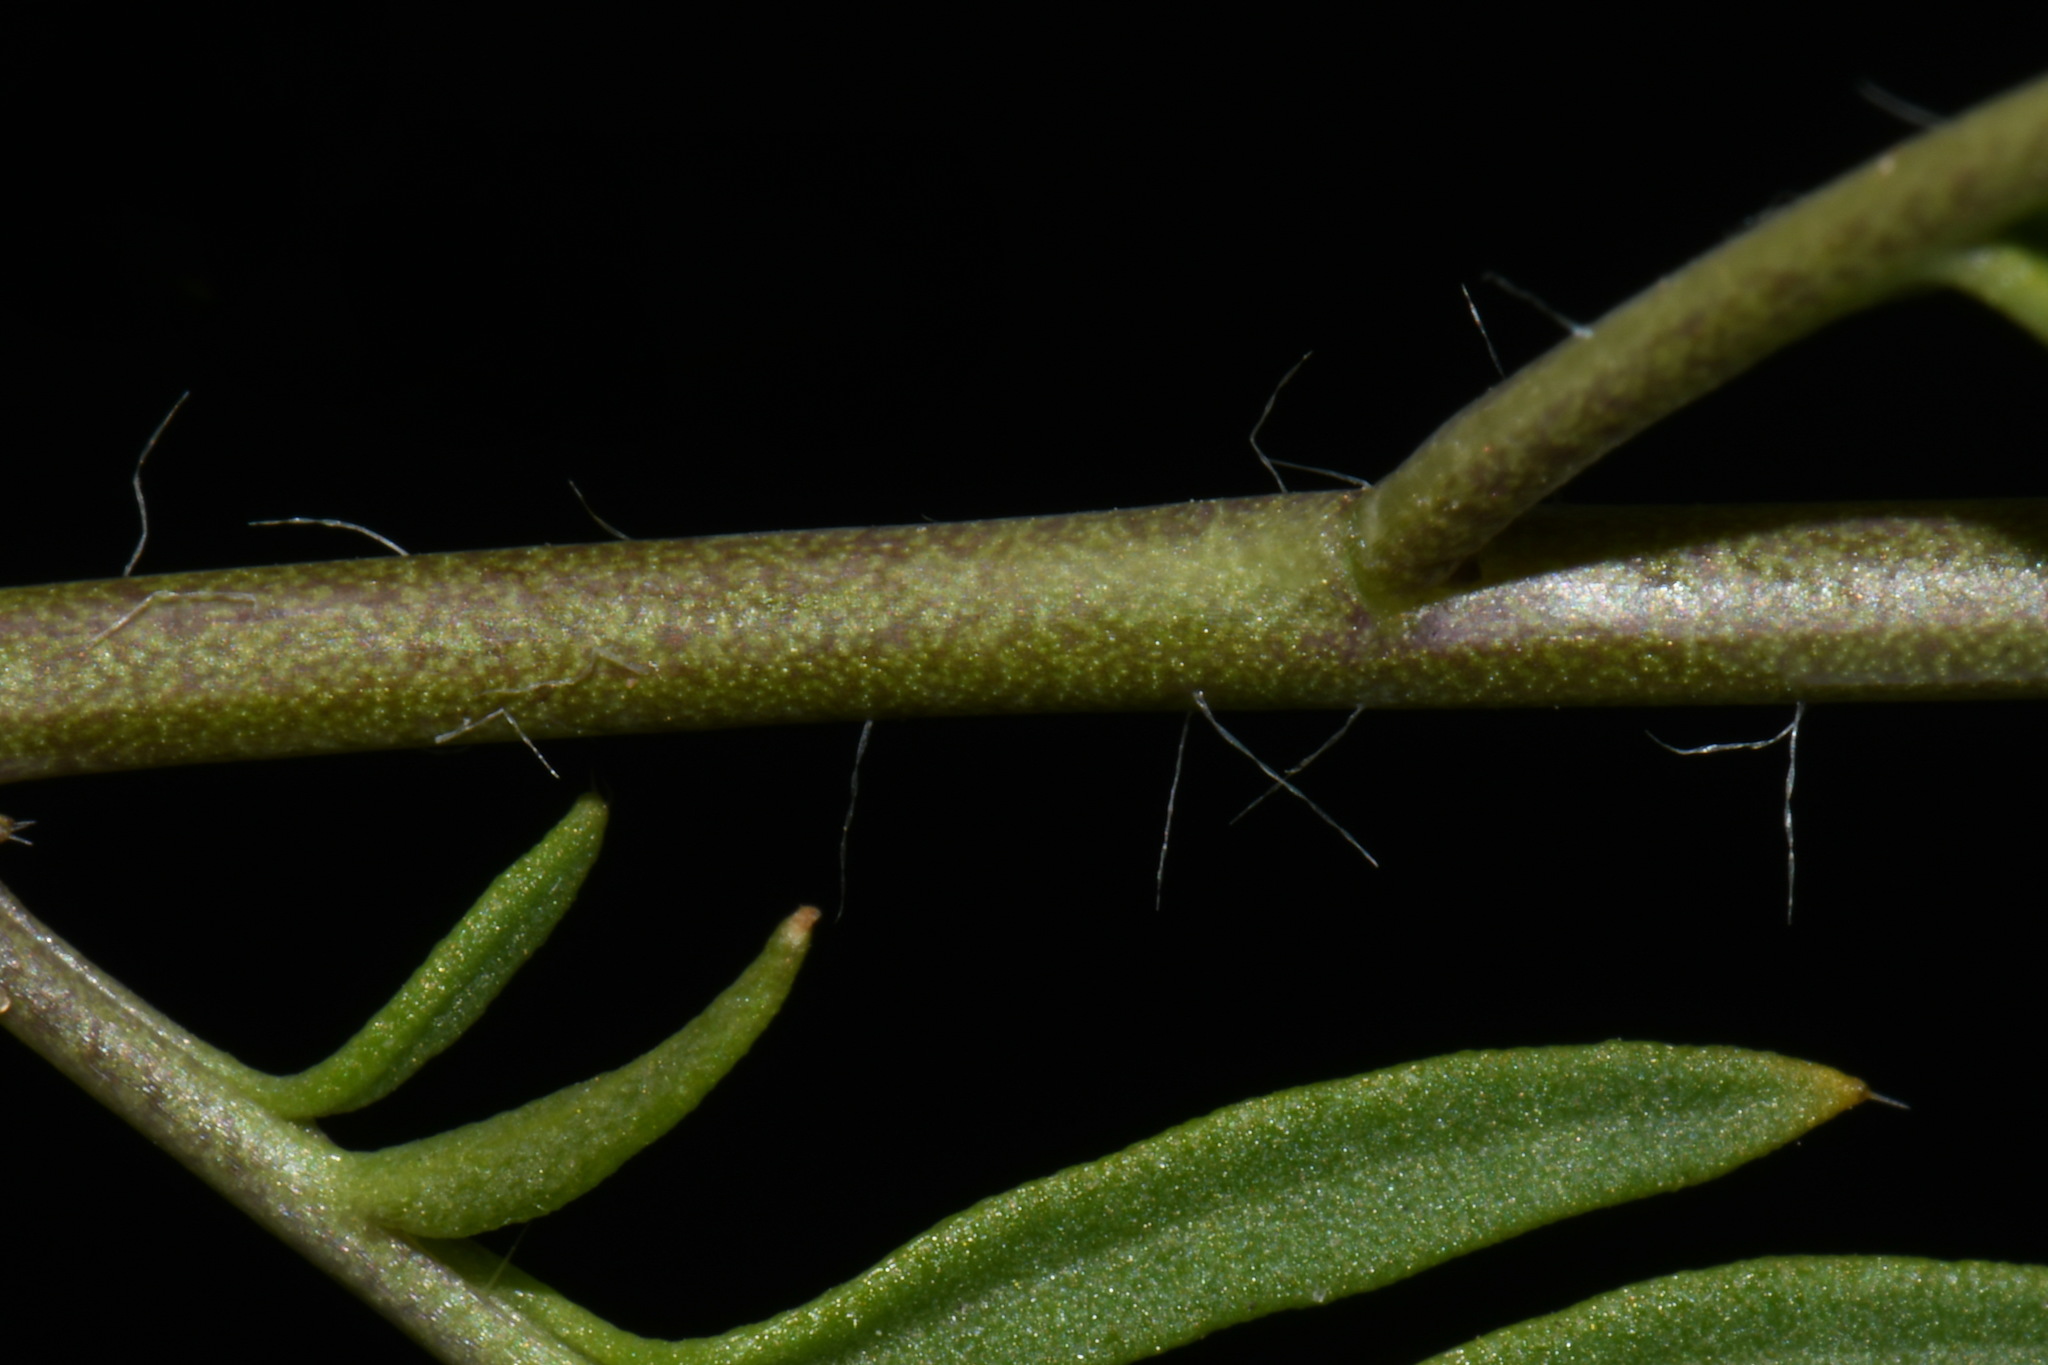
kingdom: Plantae
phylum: Tracheophyta
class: Magnoliopsida
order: Brassicales
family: Brassicaceae
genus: Diplotaxis
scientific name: Diplotaxis tenuifolia
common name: Perennial wall-rocket
